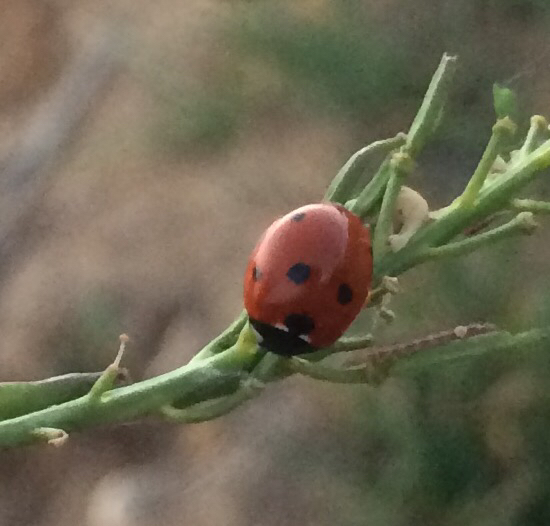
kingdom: Animalia
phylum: Arthropoda
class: Insecta
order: Coleoptera
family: Coccinellidae
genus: Coccinella
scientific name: Coccinella septempunctata
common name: Sevenspotted lady beetle
